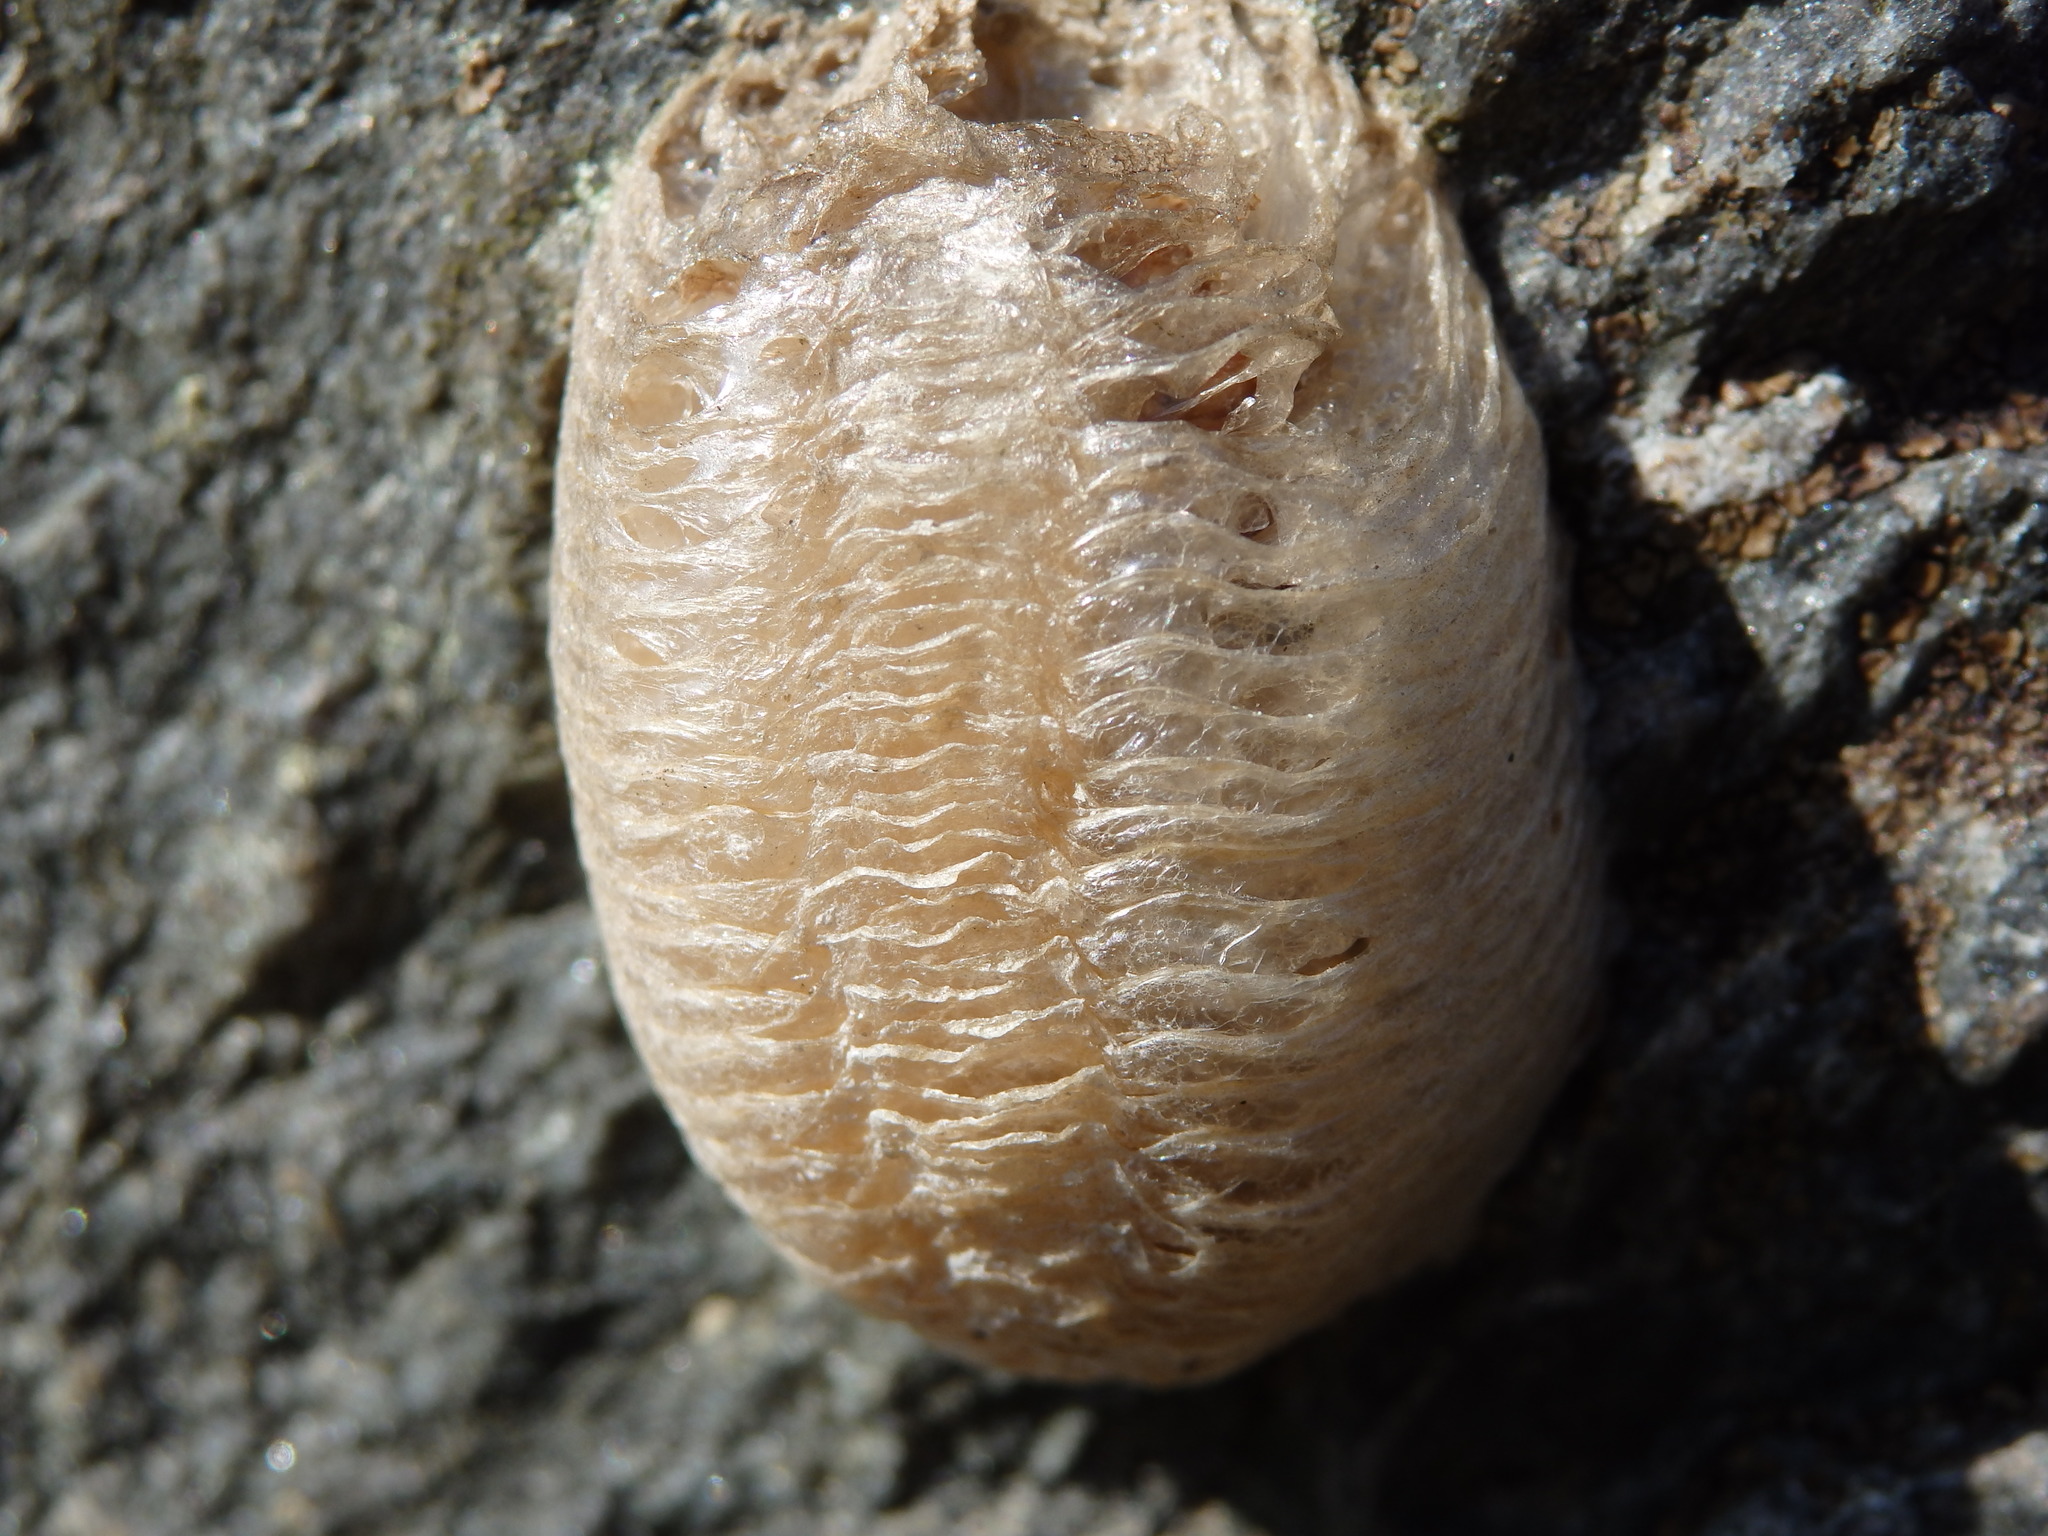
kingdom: Animalia
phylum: Arthropoda
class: Insecta
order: Mantodea
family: Mantidae
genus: Mantis
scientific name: Mantis religiosa
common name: Praying mantis
